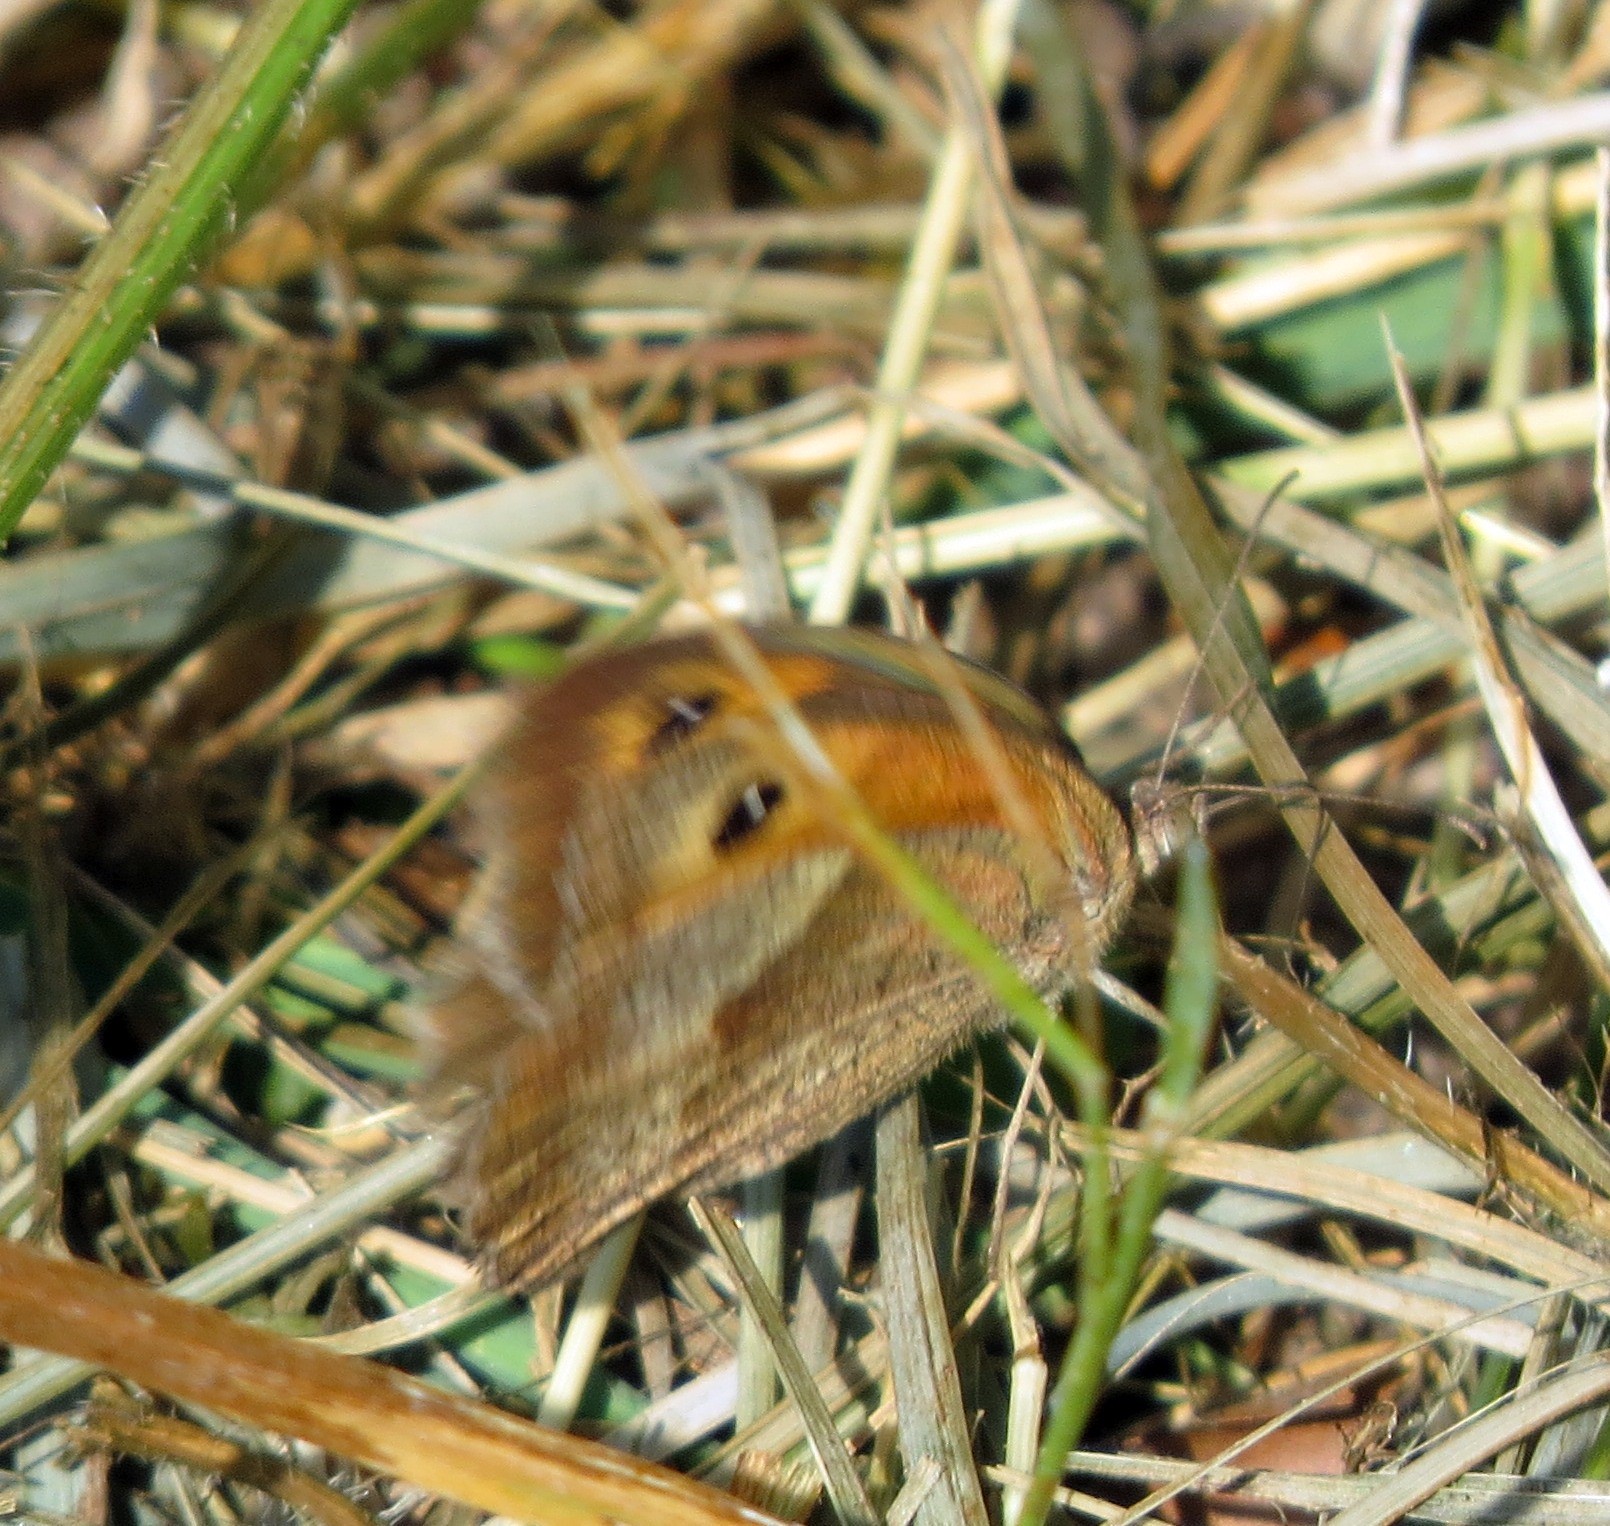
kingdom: Animalia
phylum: Arthropoda
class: Insecta
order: Lepidoptera
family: Nymphalidae
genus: Maniola
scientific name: Maniola jurtina
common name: Meadow brown
